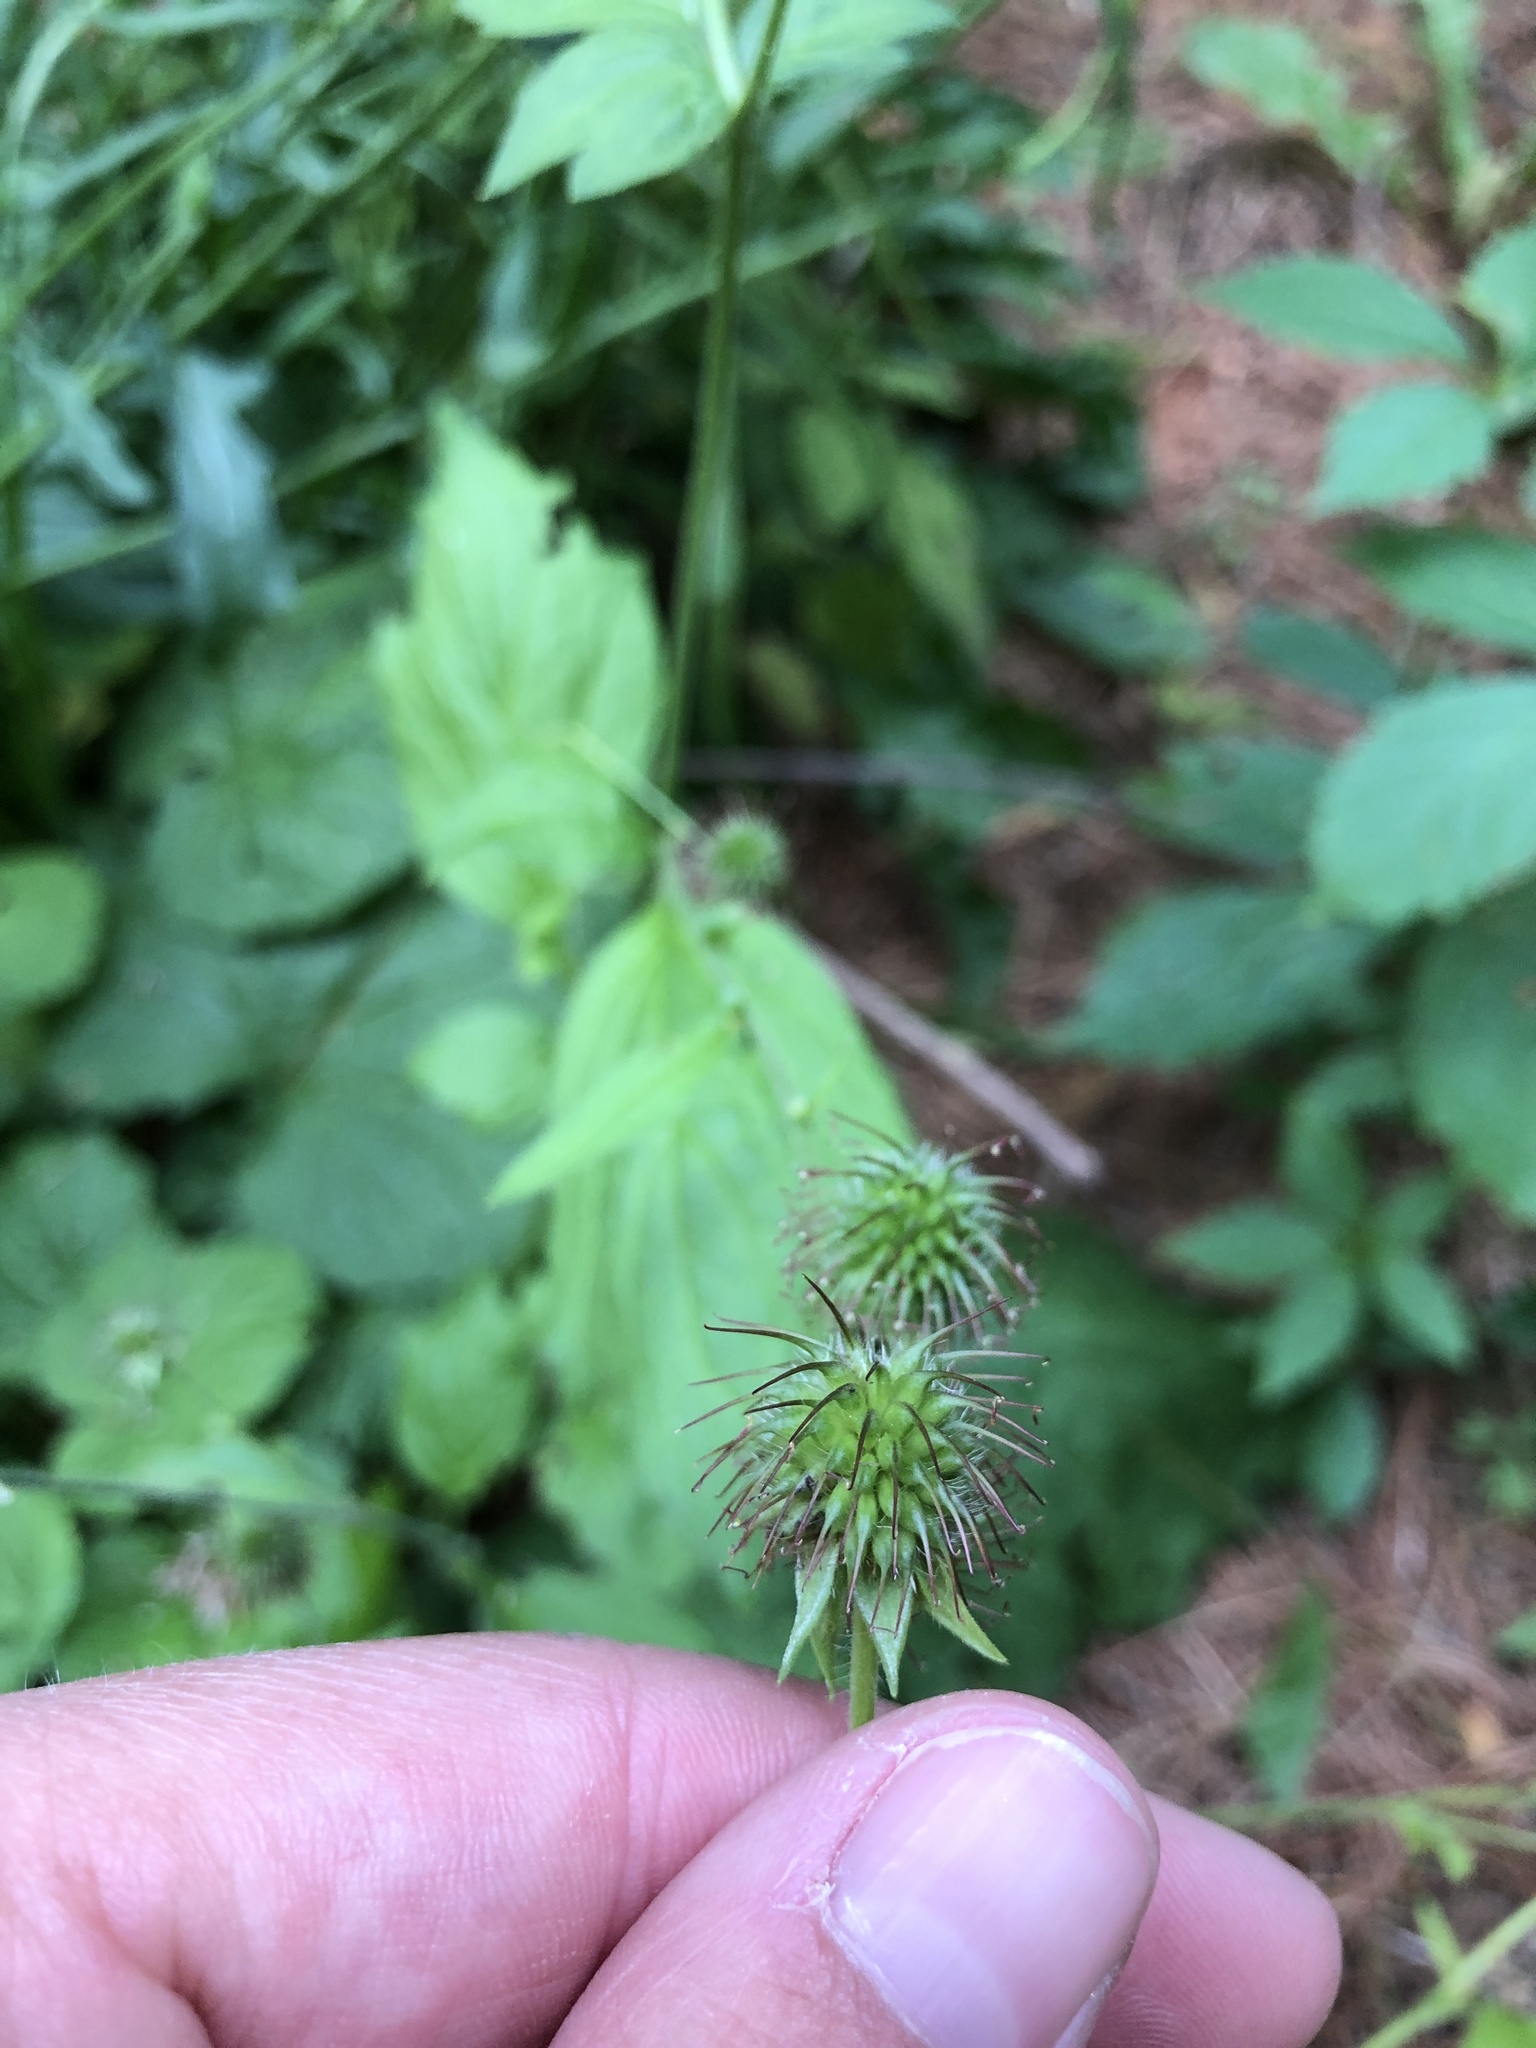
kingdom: Plantae
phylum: Tracheophyta
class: Magnoliopsida
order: Rosales
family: Rosaceae
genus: Geum
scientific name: Geum urbanum
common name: Wood avens
